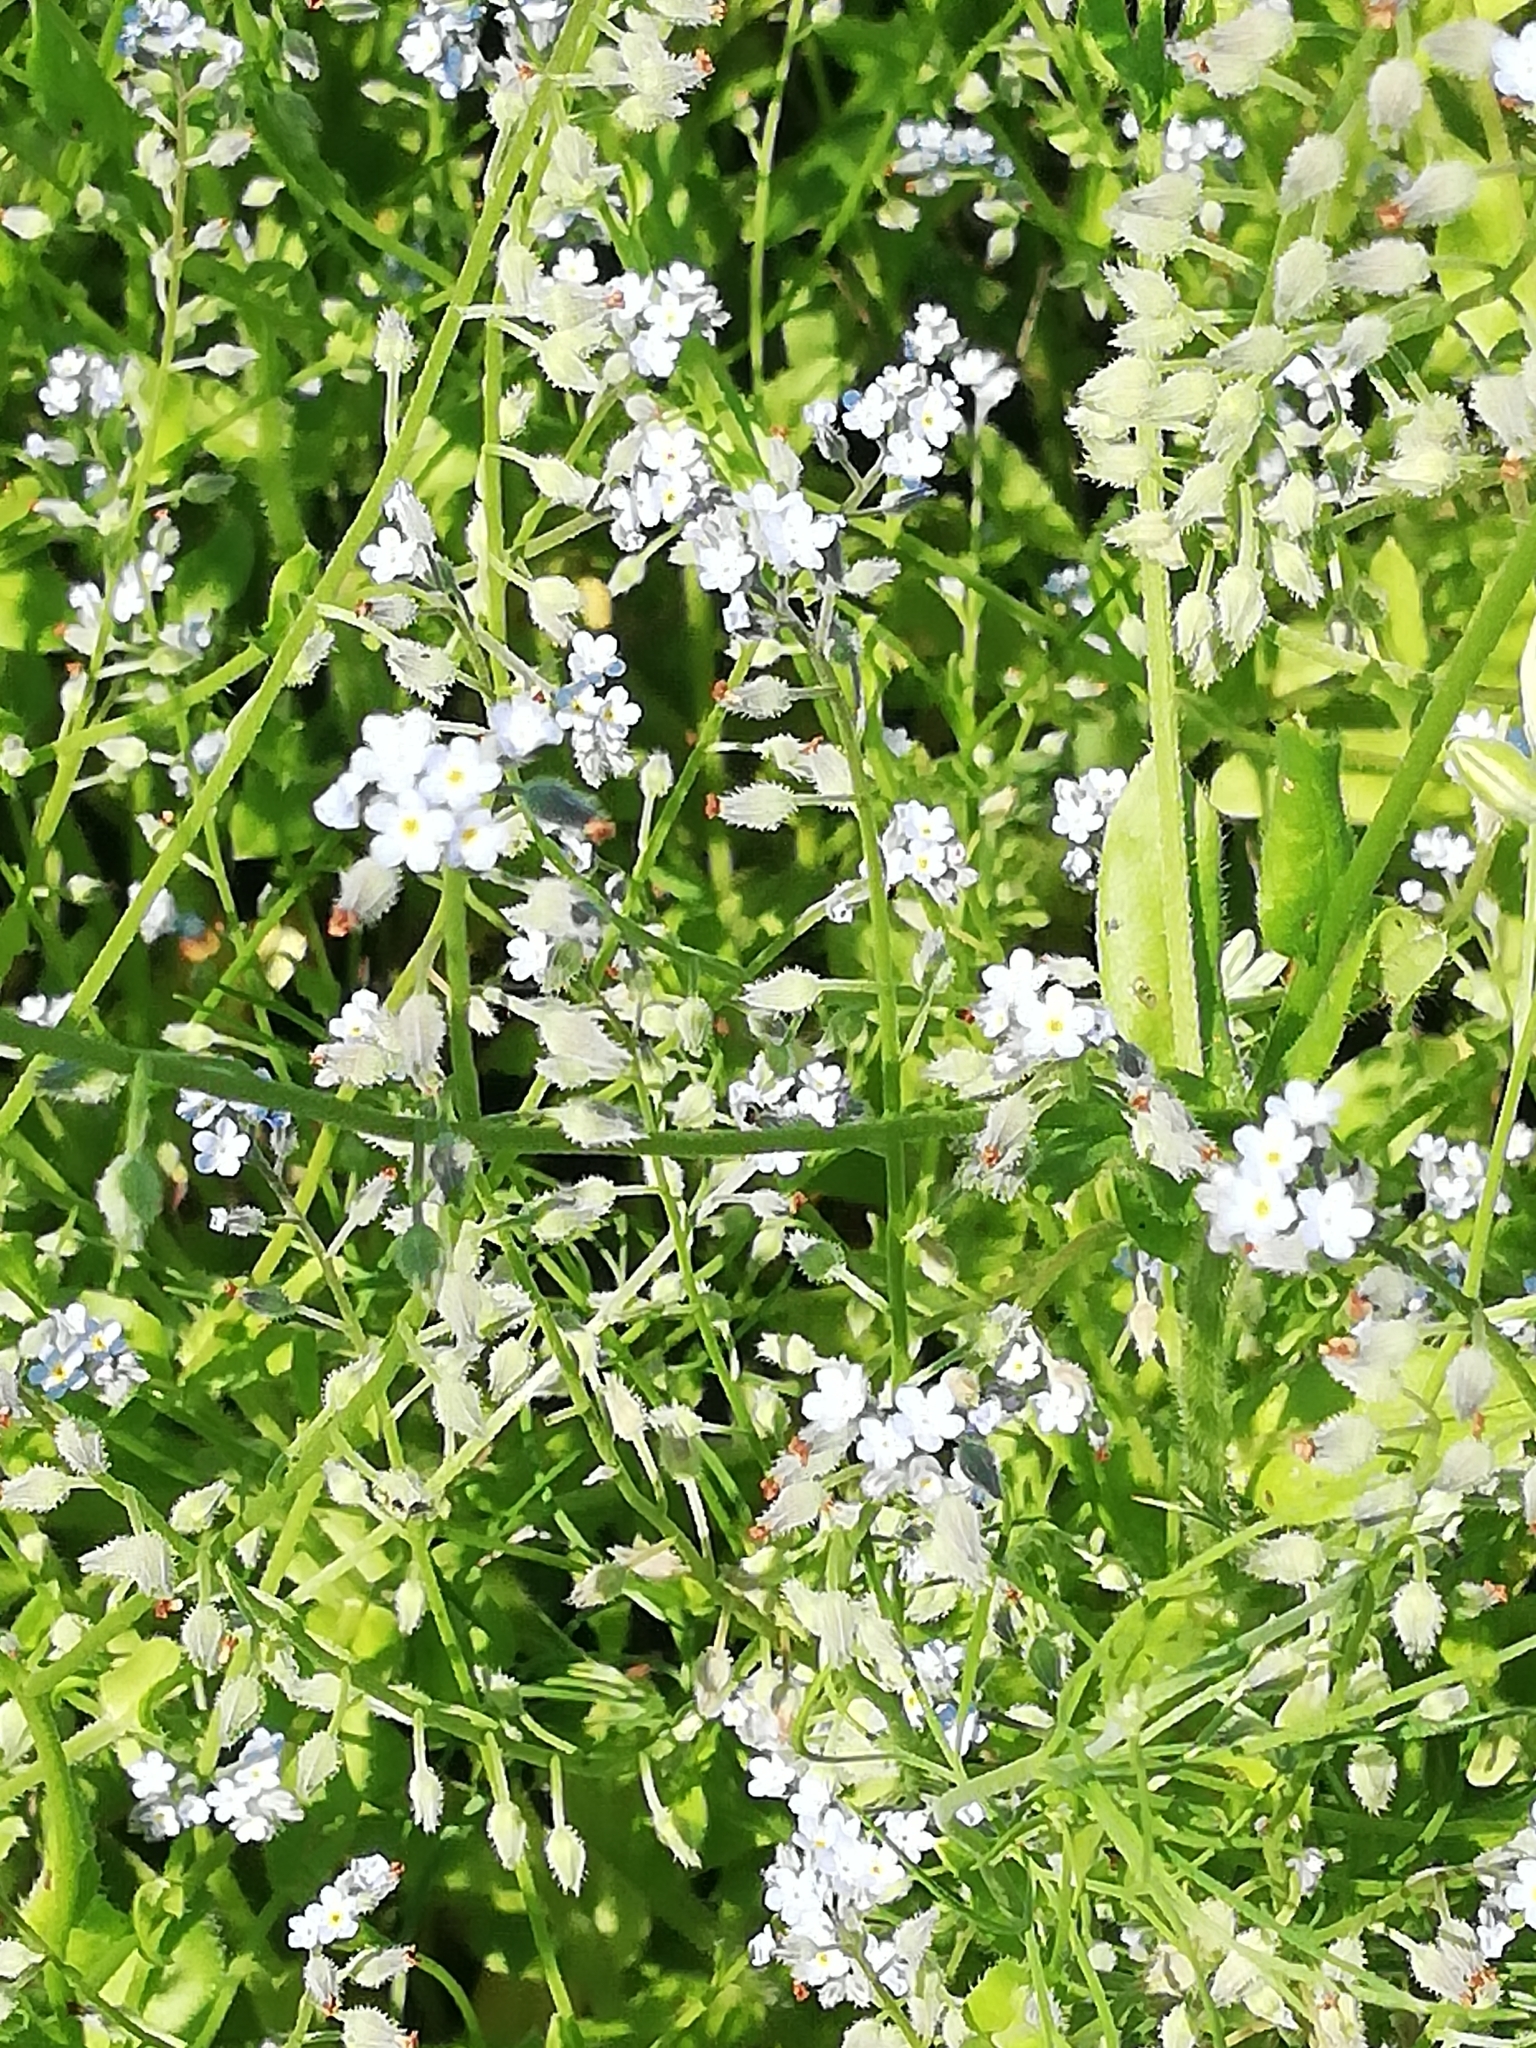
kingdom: Plantae
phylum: Tracheophyta
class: Magnoliopsida
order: Boraginales
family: Boraginaceae
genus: Myosotis
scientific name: Myosotis arvensis
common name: Field forget-me-not
